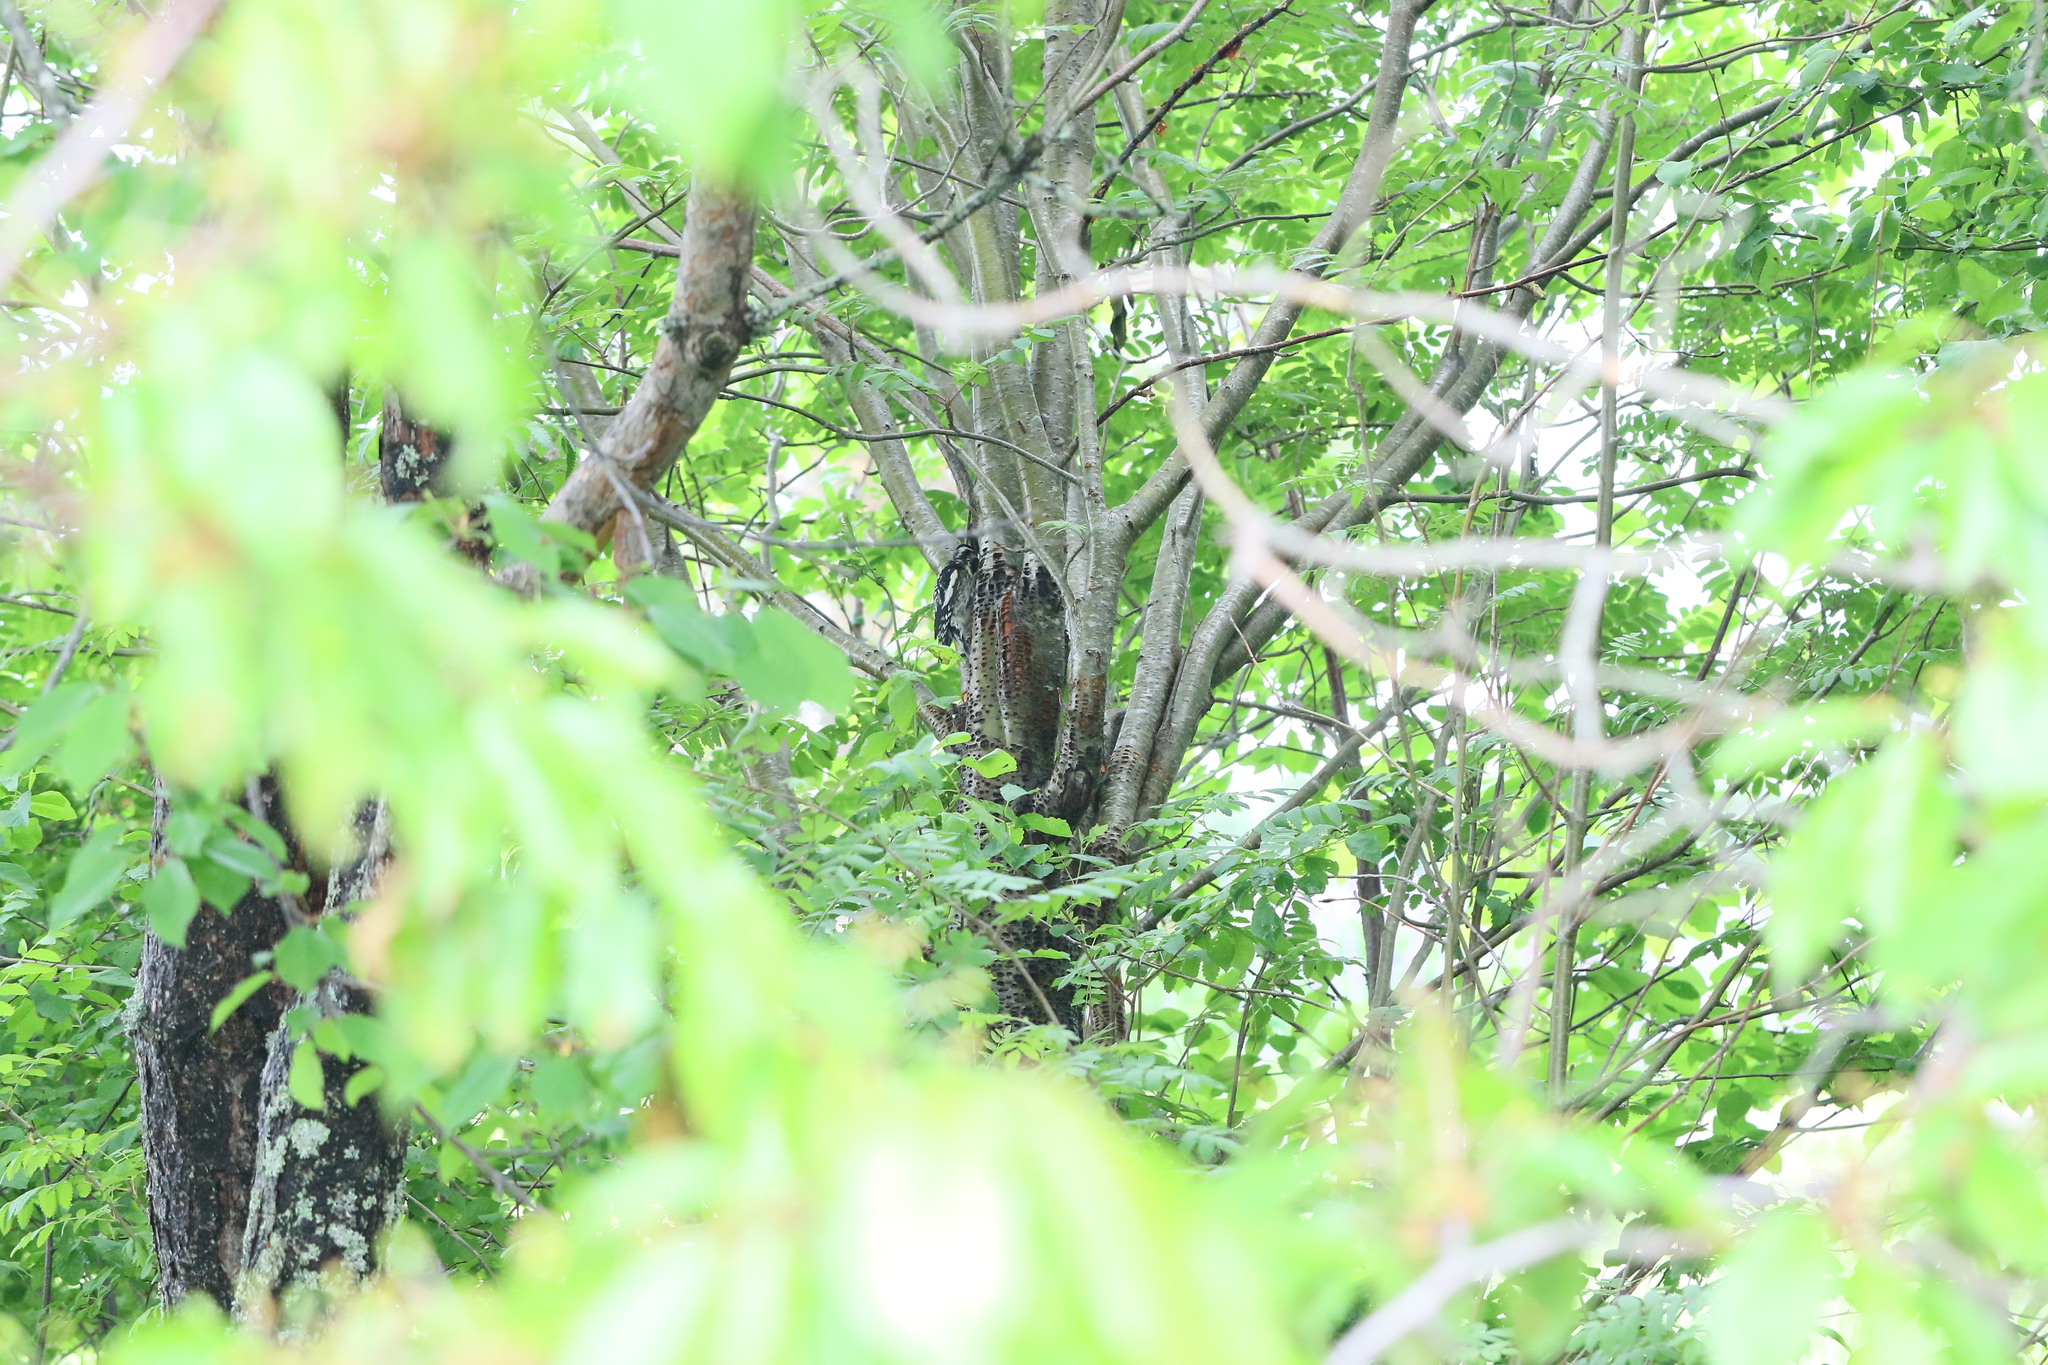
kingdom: Animalia
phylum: Chordata
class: Aves
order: Piciformes
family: Picidae
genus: Sphyrapicus
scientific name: Sphyrapicus varius
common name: Yellow-bellied sapsucker
